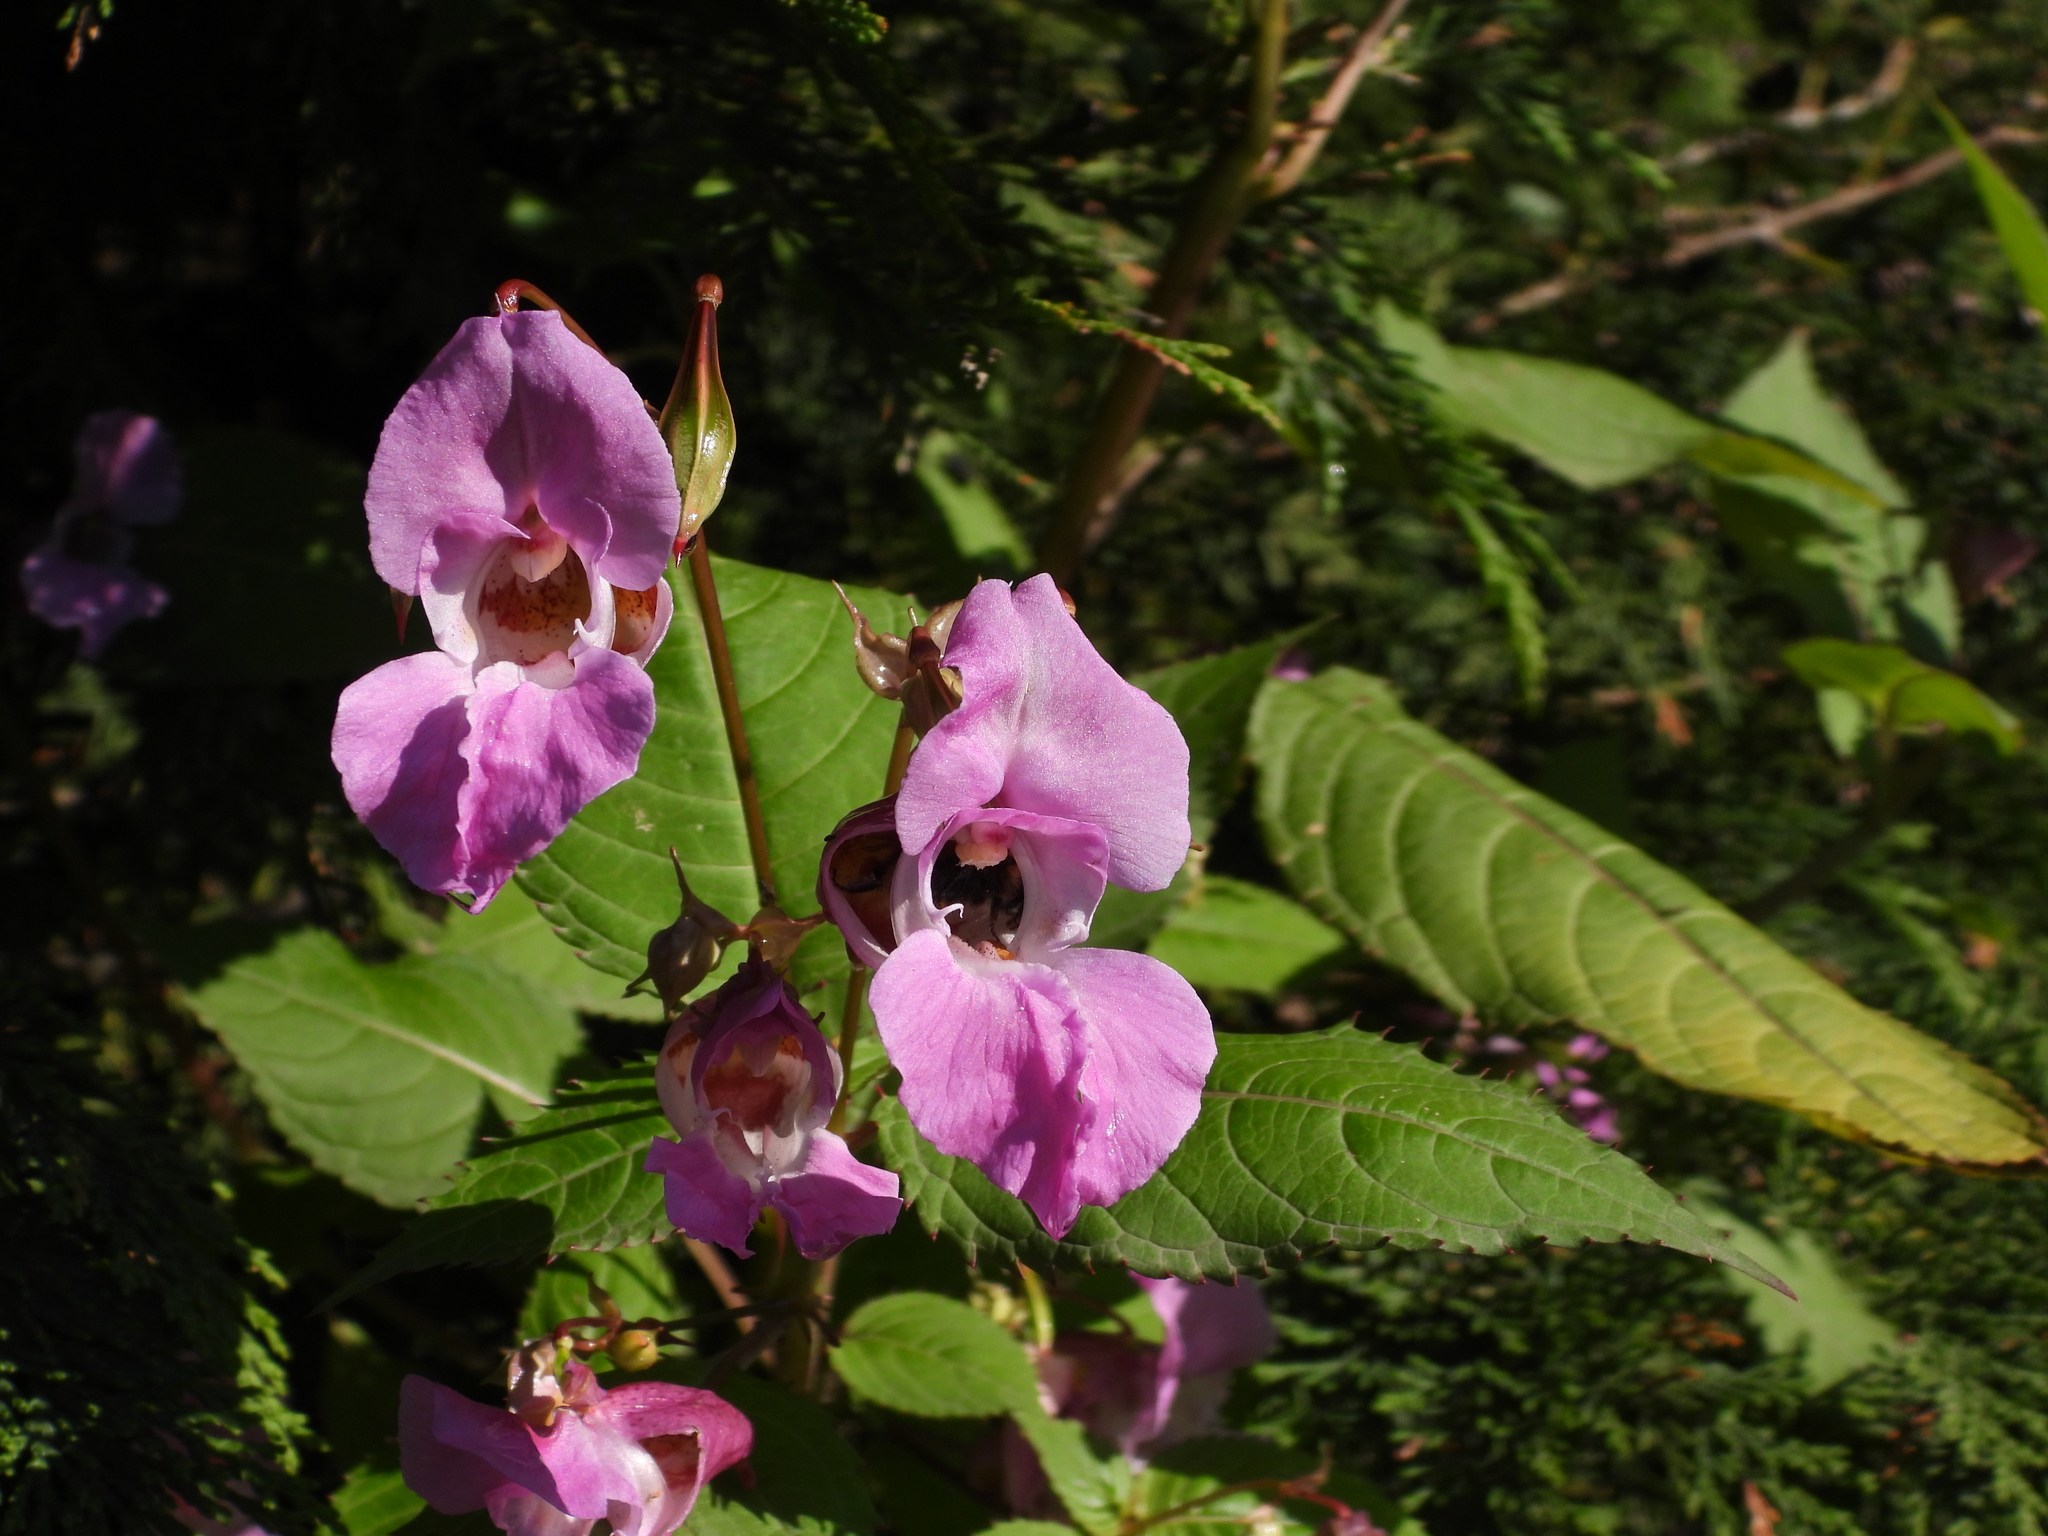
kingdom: Plantae
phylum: Tracheophyta
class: Magnoliopsida
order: Ericales
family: Balsaminaceae
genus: Impatiens
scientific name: Impatiens glandulifera
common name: Himalayan balsam
